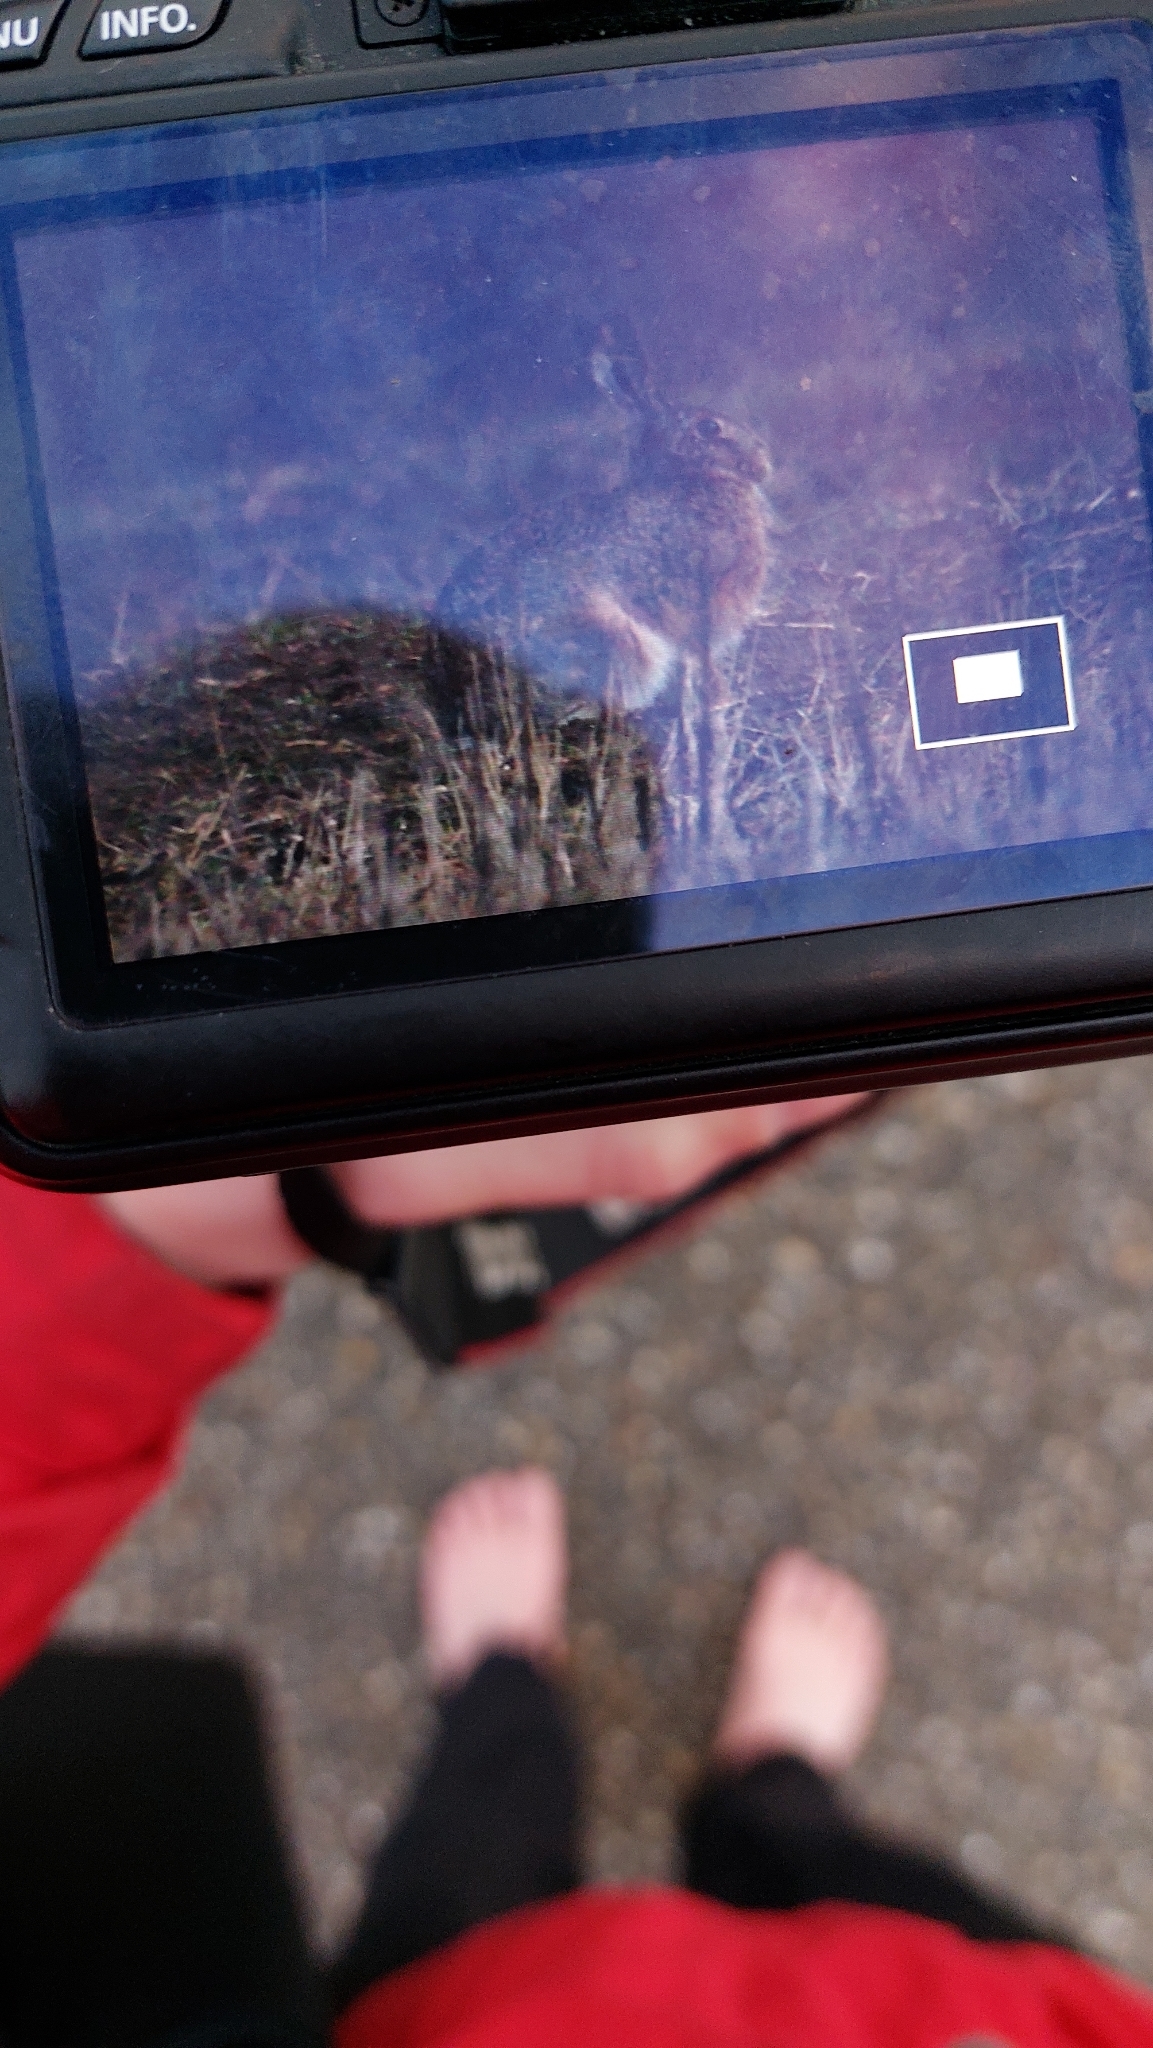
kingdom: Animalia
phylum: Chordata
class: Mammalia
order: Lagomorpha
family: Leporidae
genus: Lepus
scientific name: Lepus europaeus
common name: European hare
